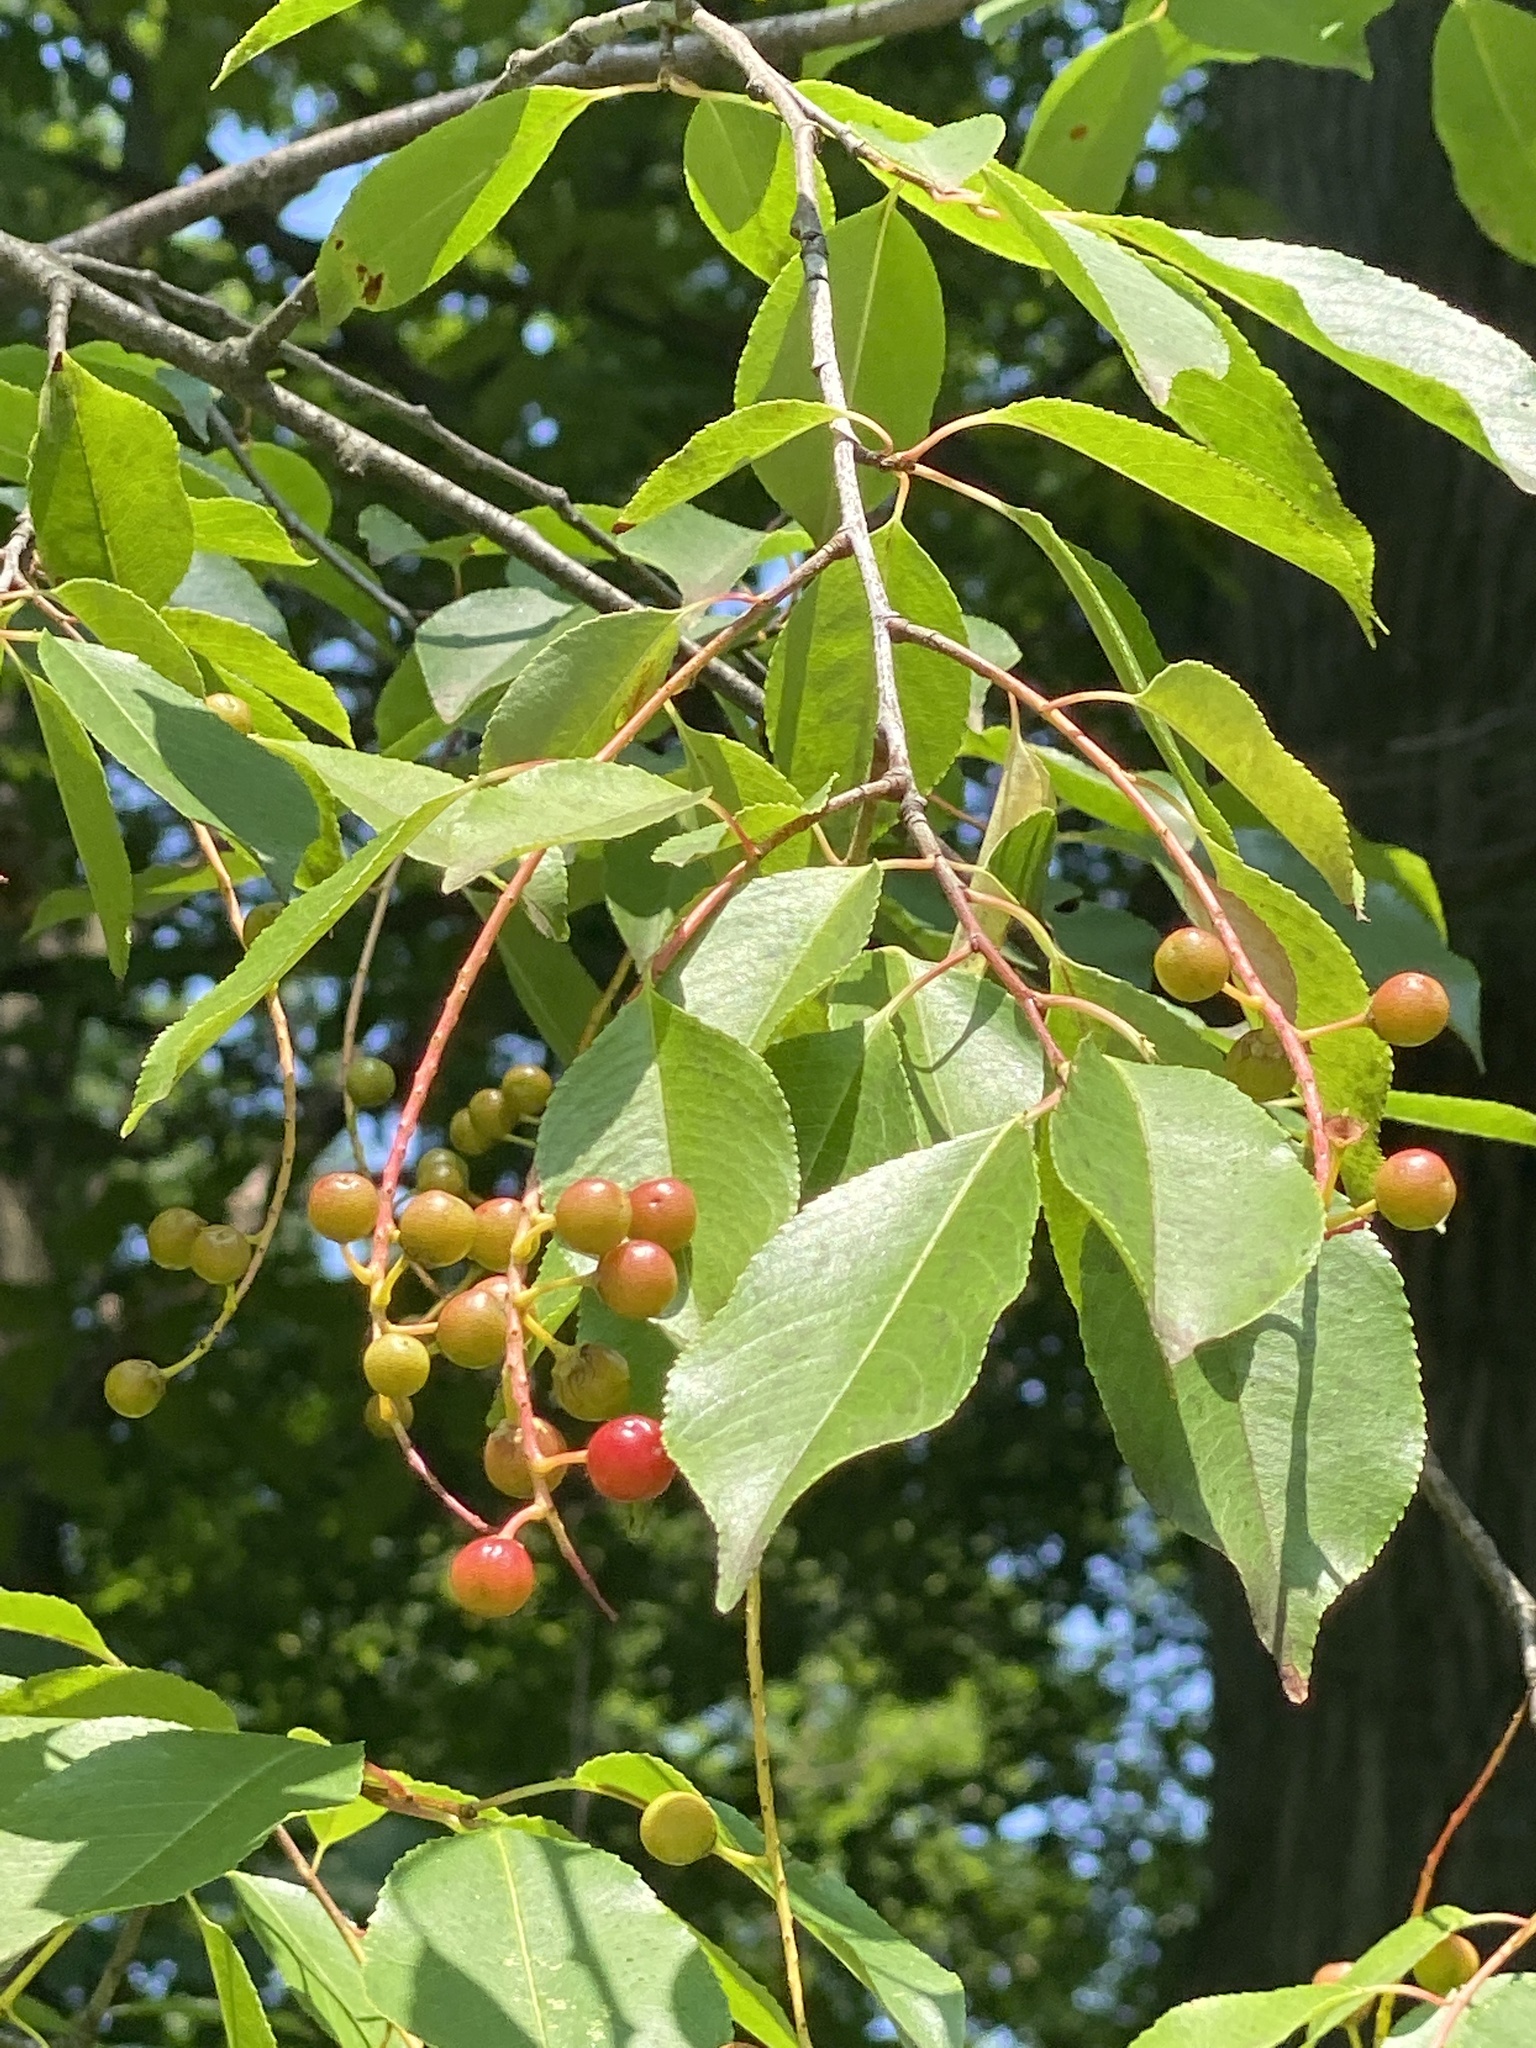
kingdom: Plantae
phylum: Tracheophyta
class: Magnoliopsida
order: Rosales
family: Rosaceae
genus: Prunus
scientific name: Prunus serotina
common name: Black cherry
